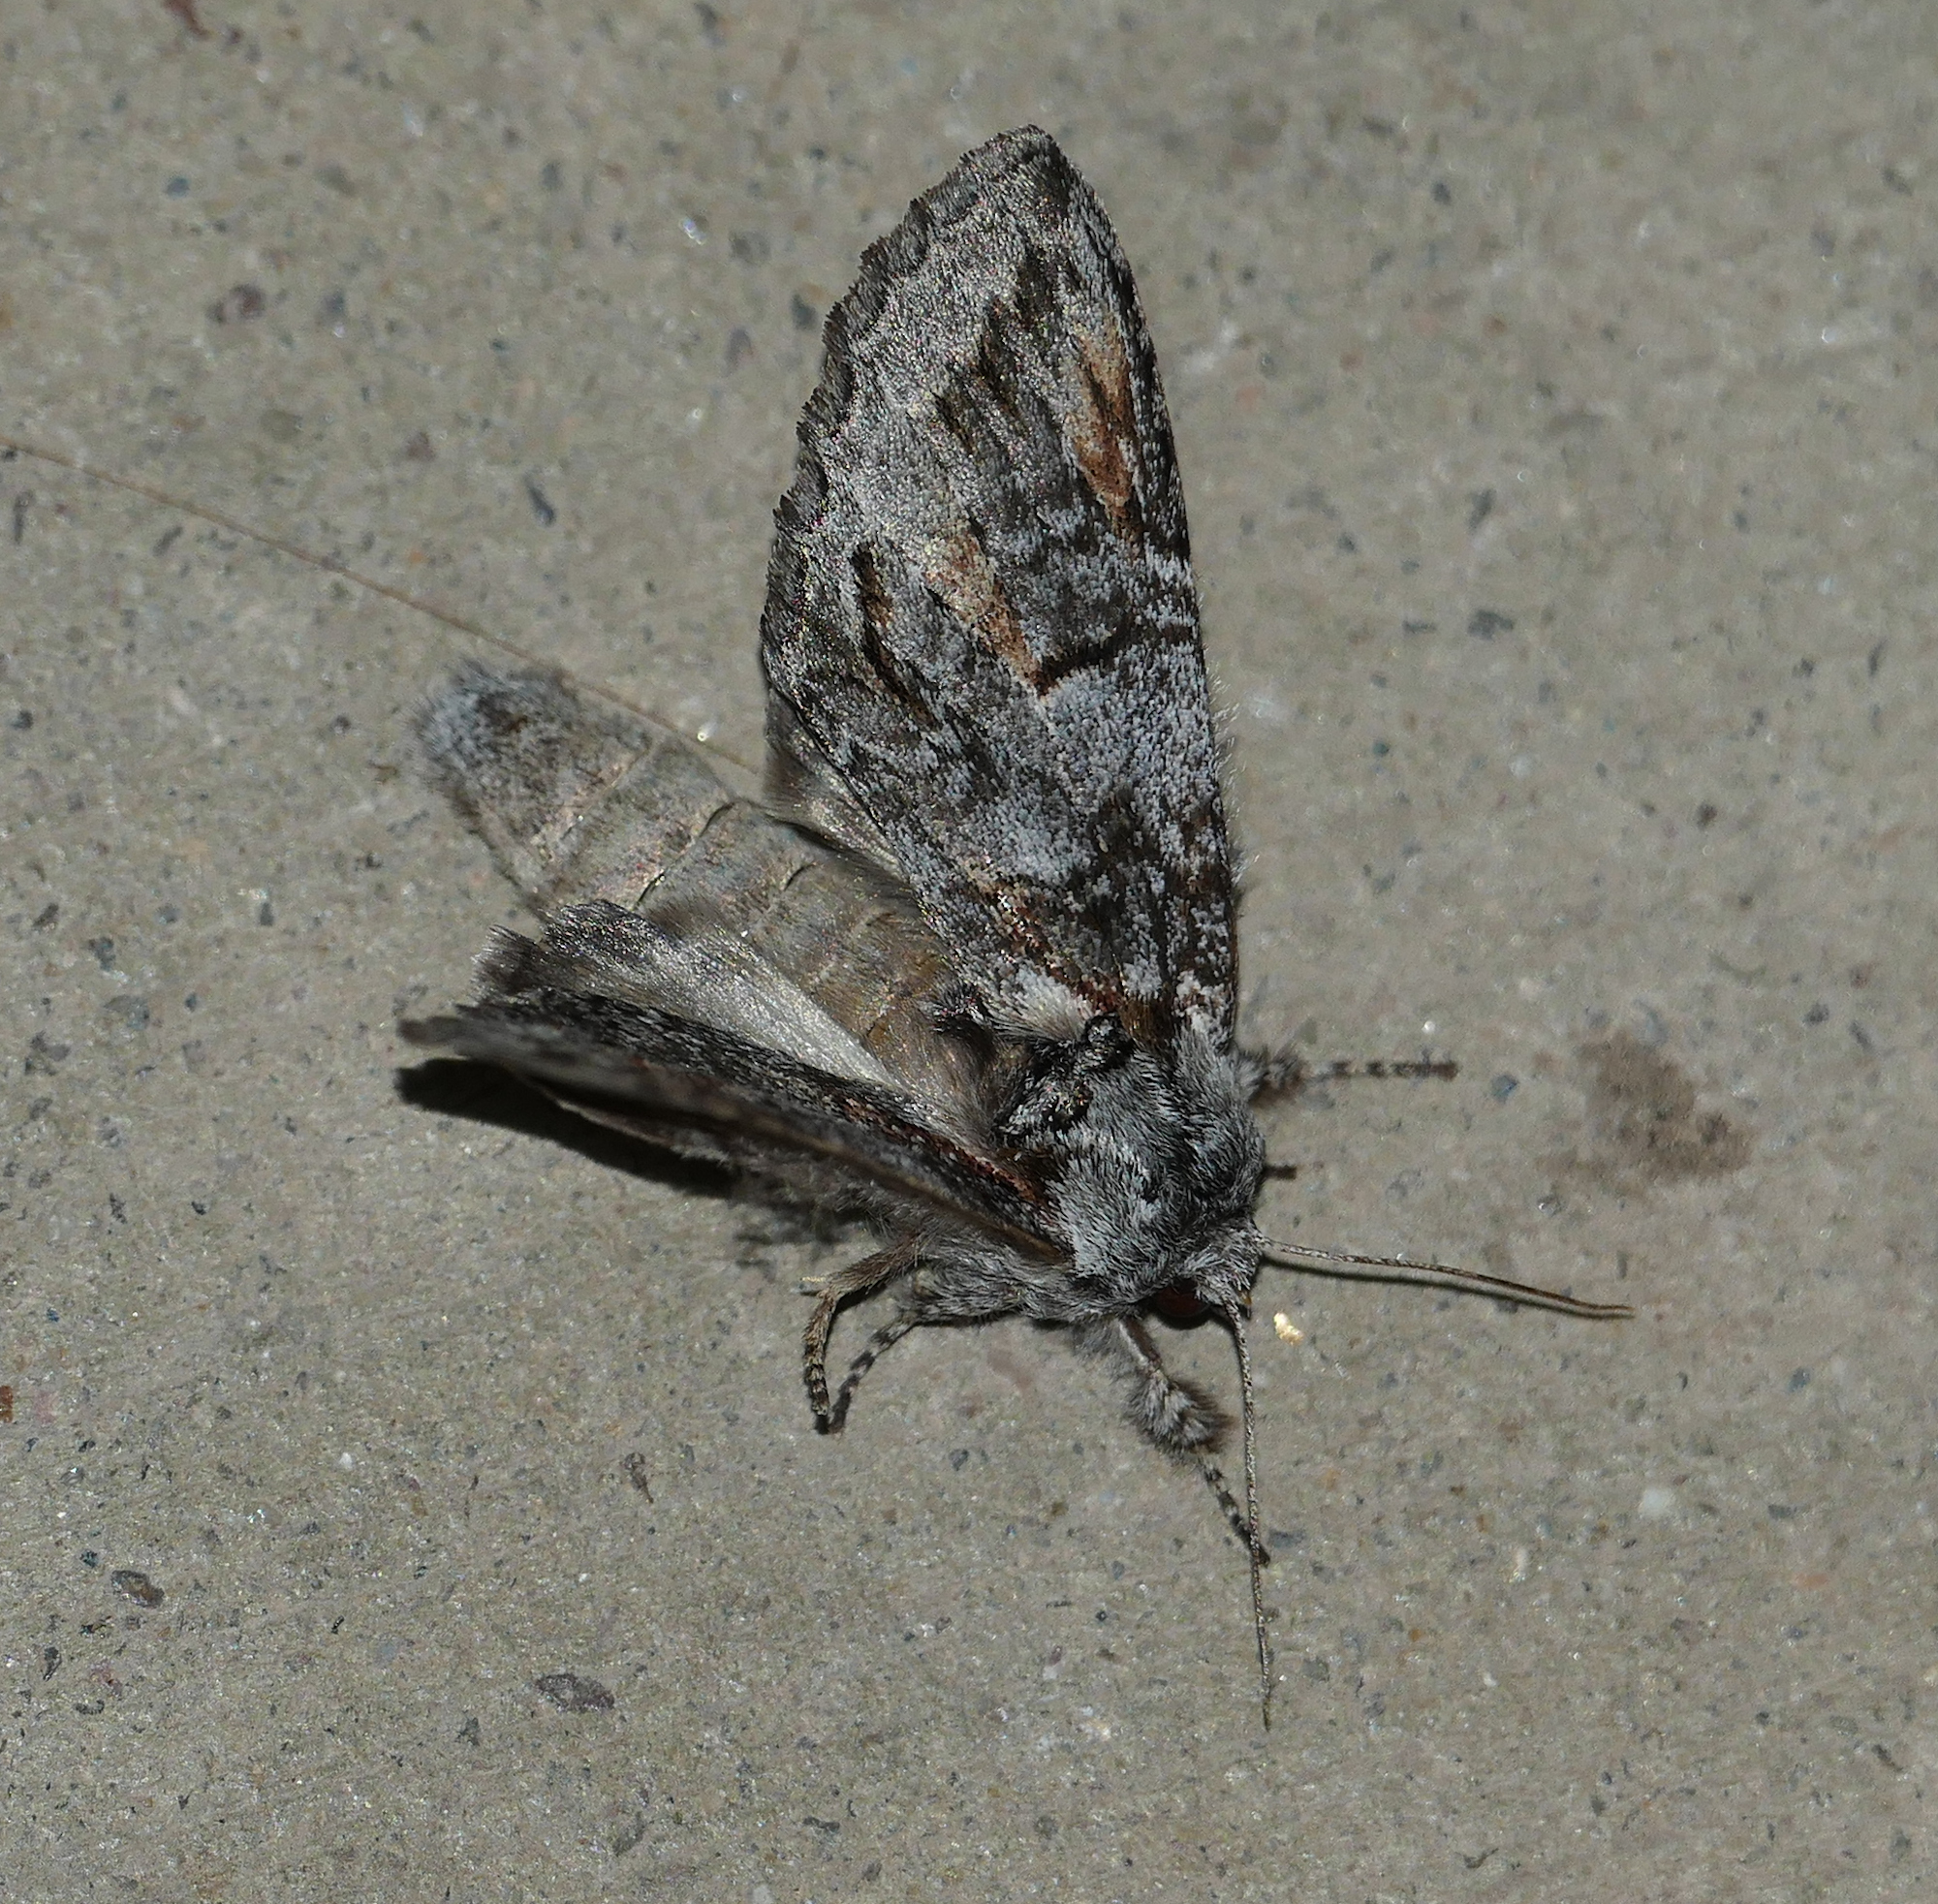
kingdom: Animalia
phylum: Arthropoda
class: Insecta
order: Lepidoptera
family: Notodontidae
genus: Macrurocampa
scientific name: Macrurocampa dorothea
